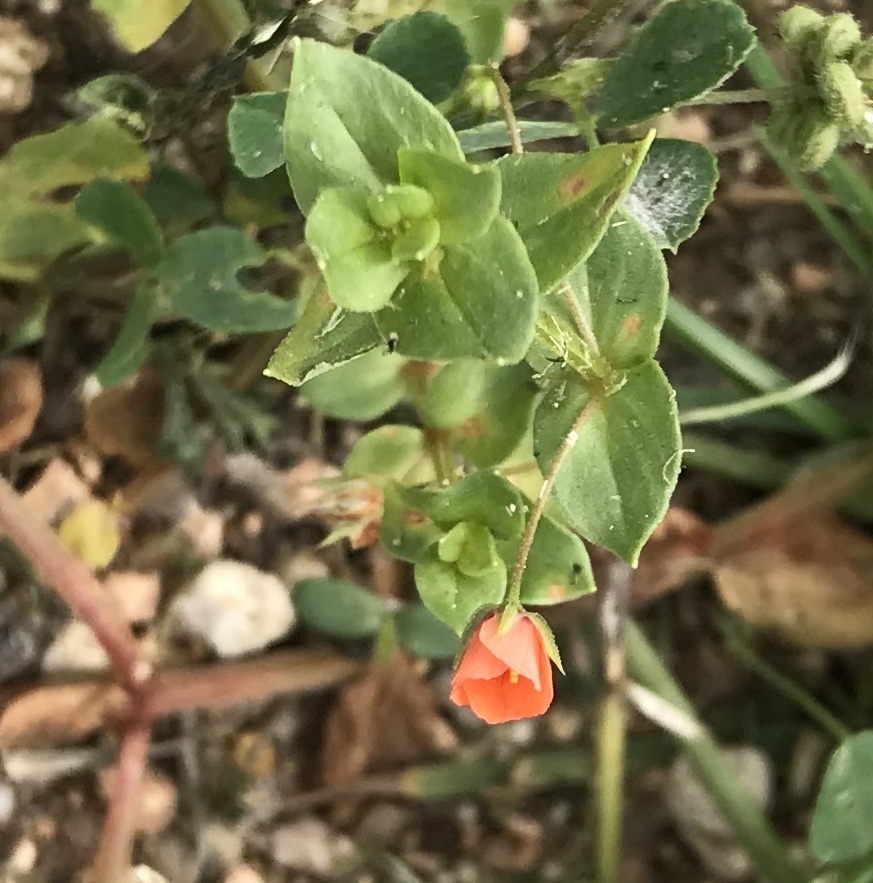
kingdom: Plantae
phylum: Tracheophyta
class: Magnoliopsida
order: Ericales
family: Primulaceae
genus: Lysimachia
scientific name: Lysimachia arvensis
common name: Scarlet pimpernel
